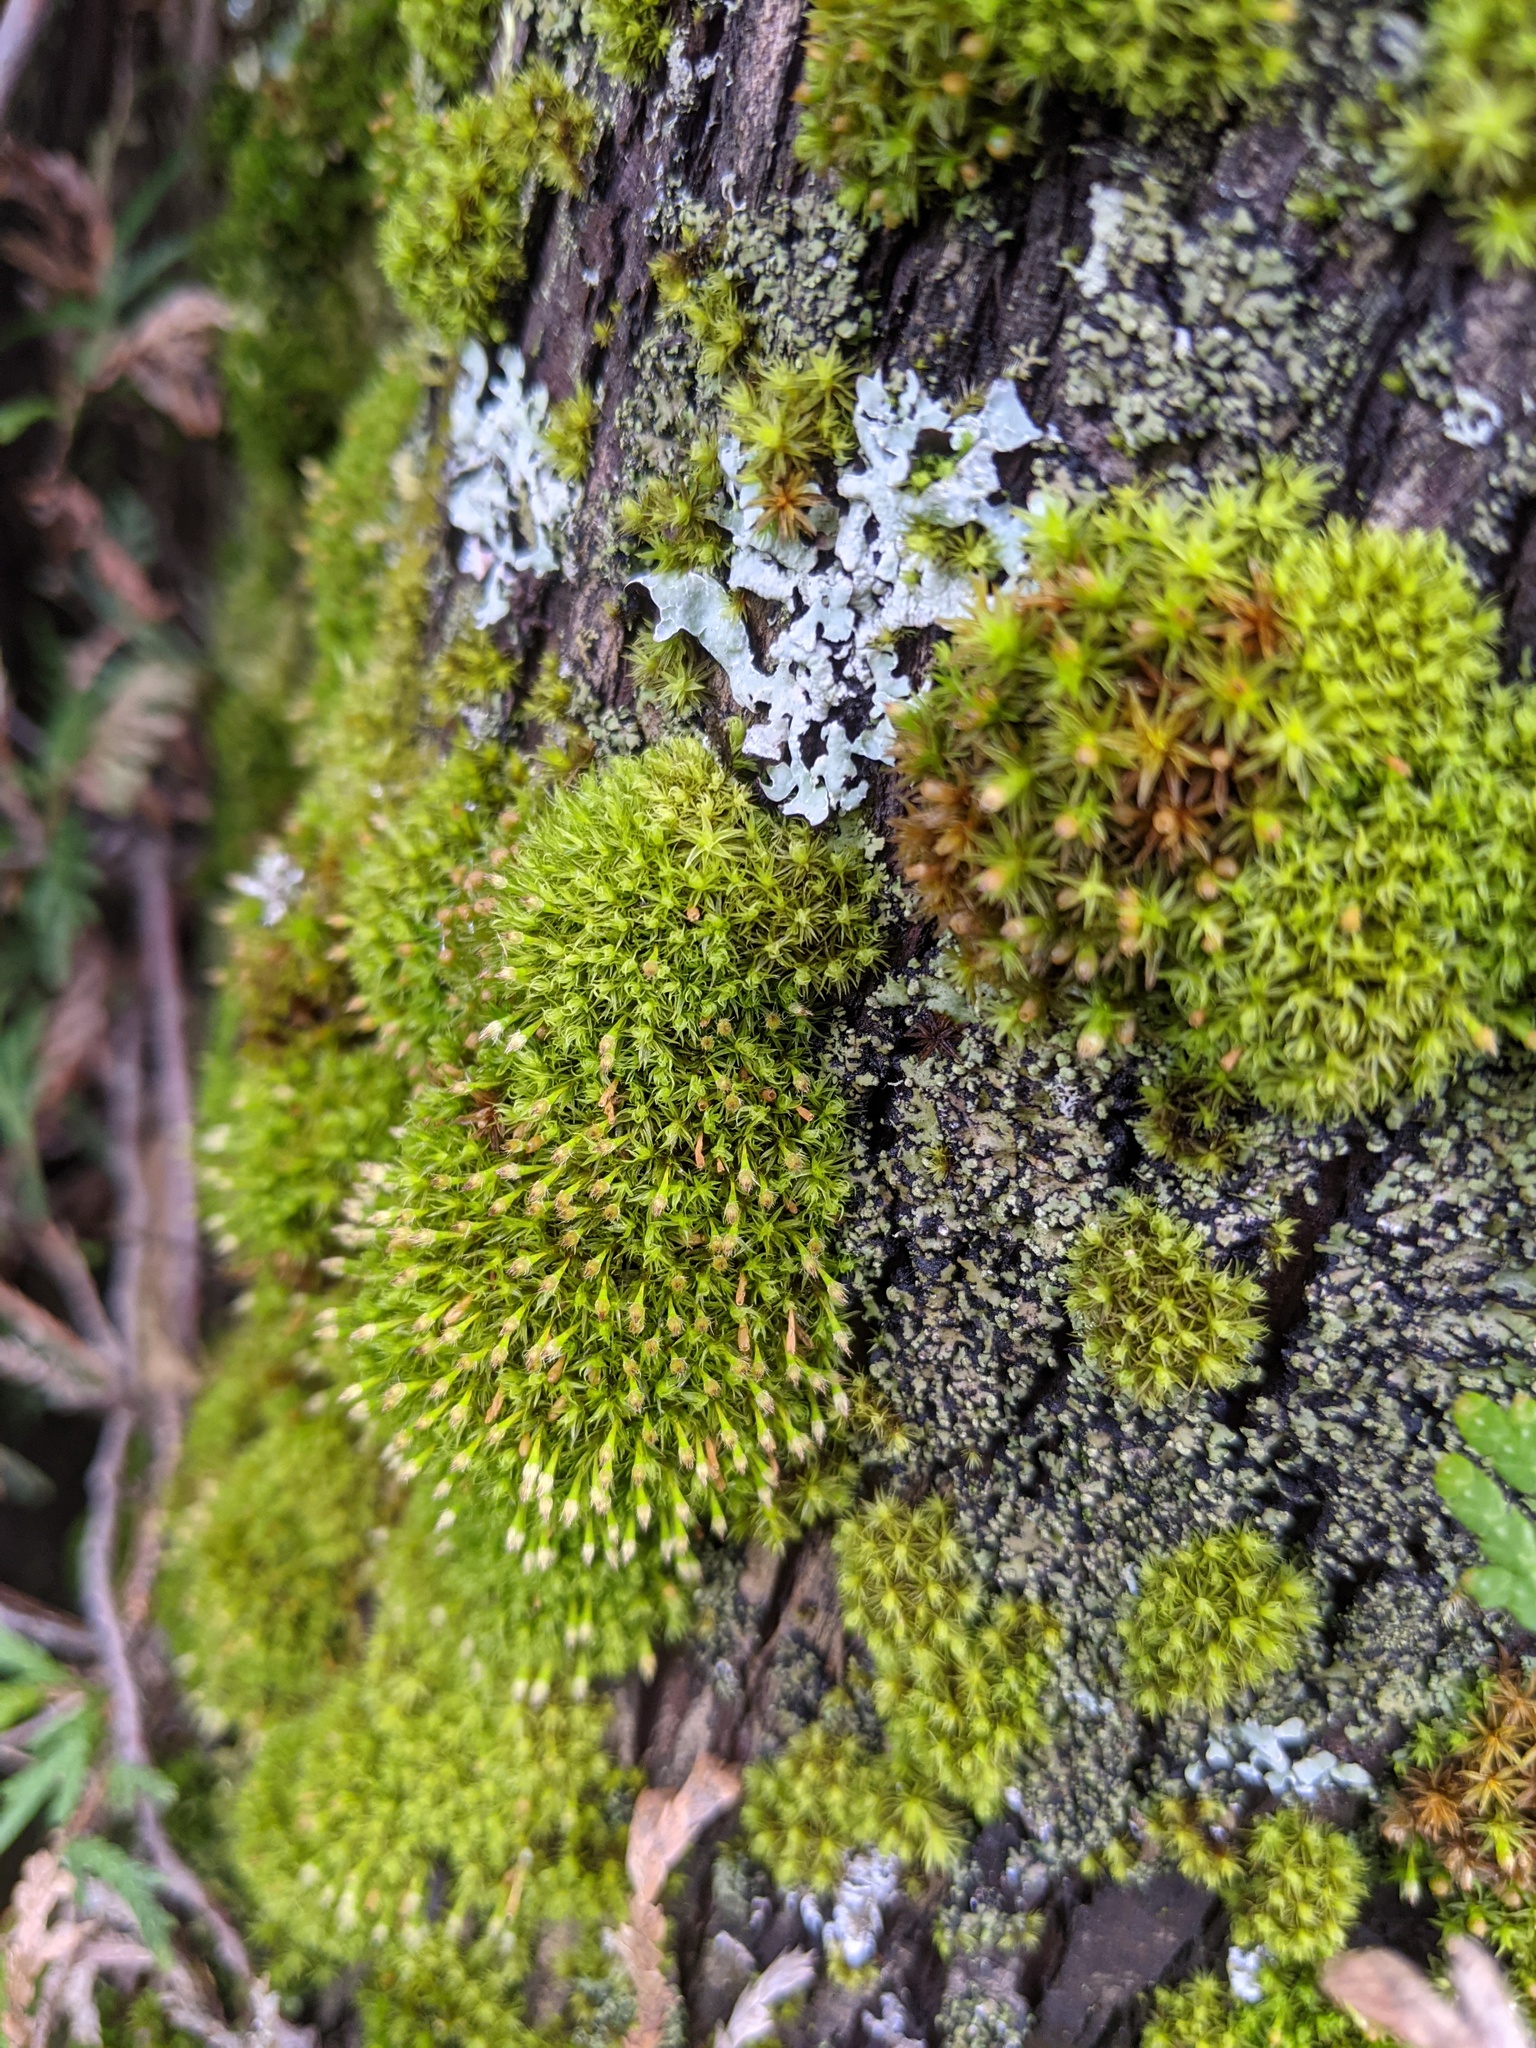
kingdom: Plantae
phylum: Bryophyta
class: Bryopsida
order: Orthotrichales
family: Orthotrichaceae
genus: Ulota
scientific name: Ulota crispa
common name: Crisped pincushion moss
